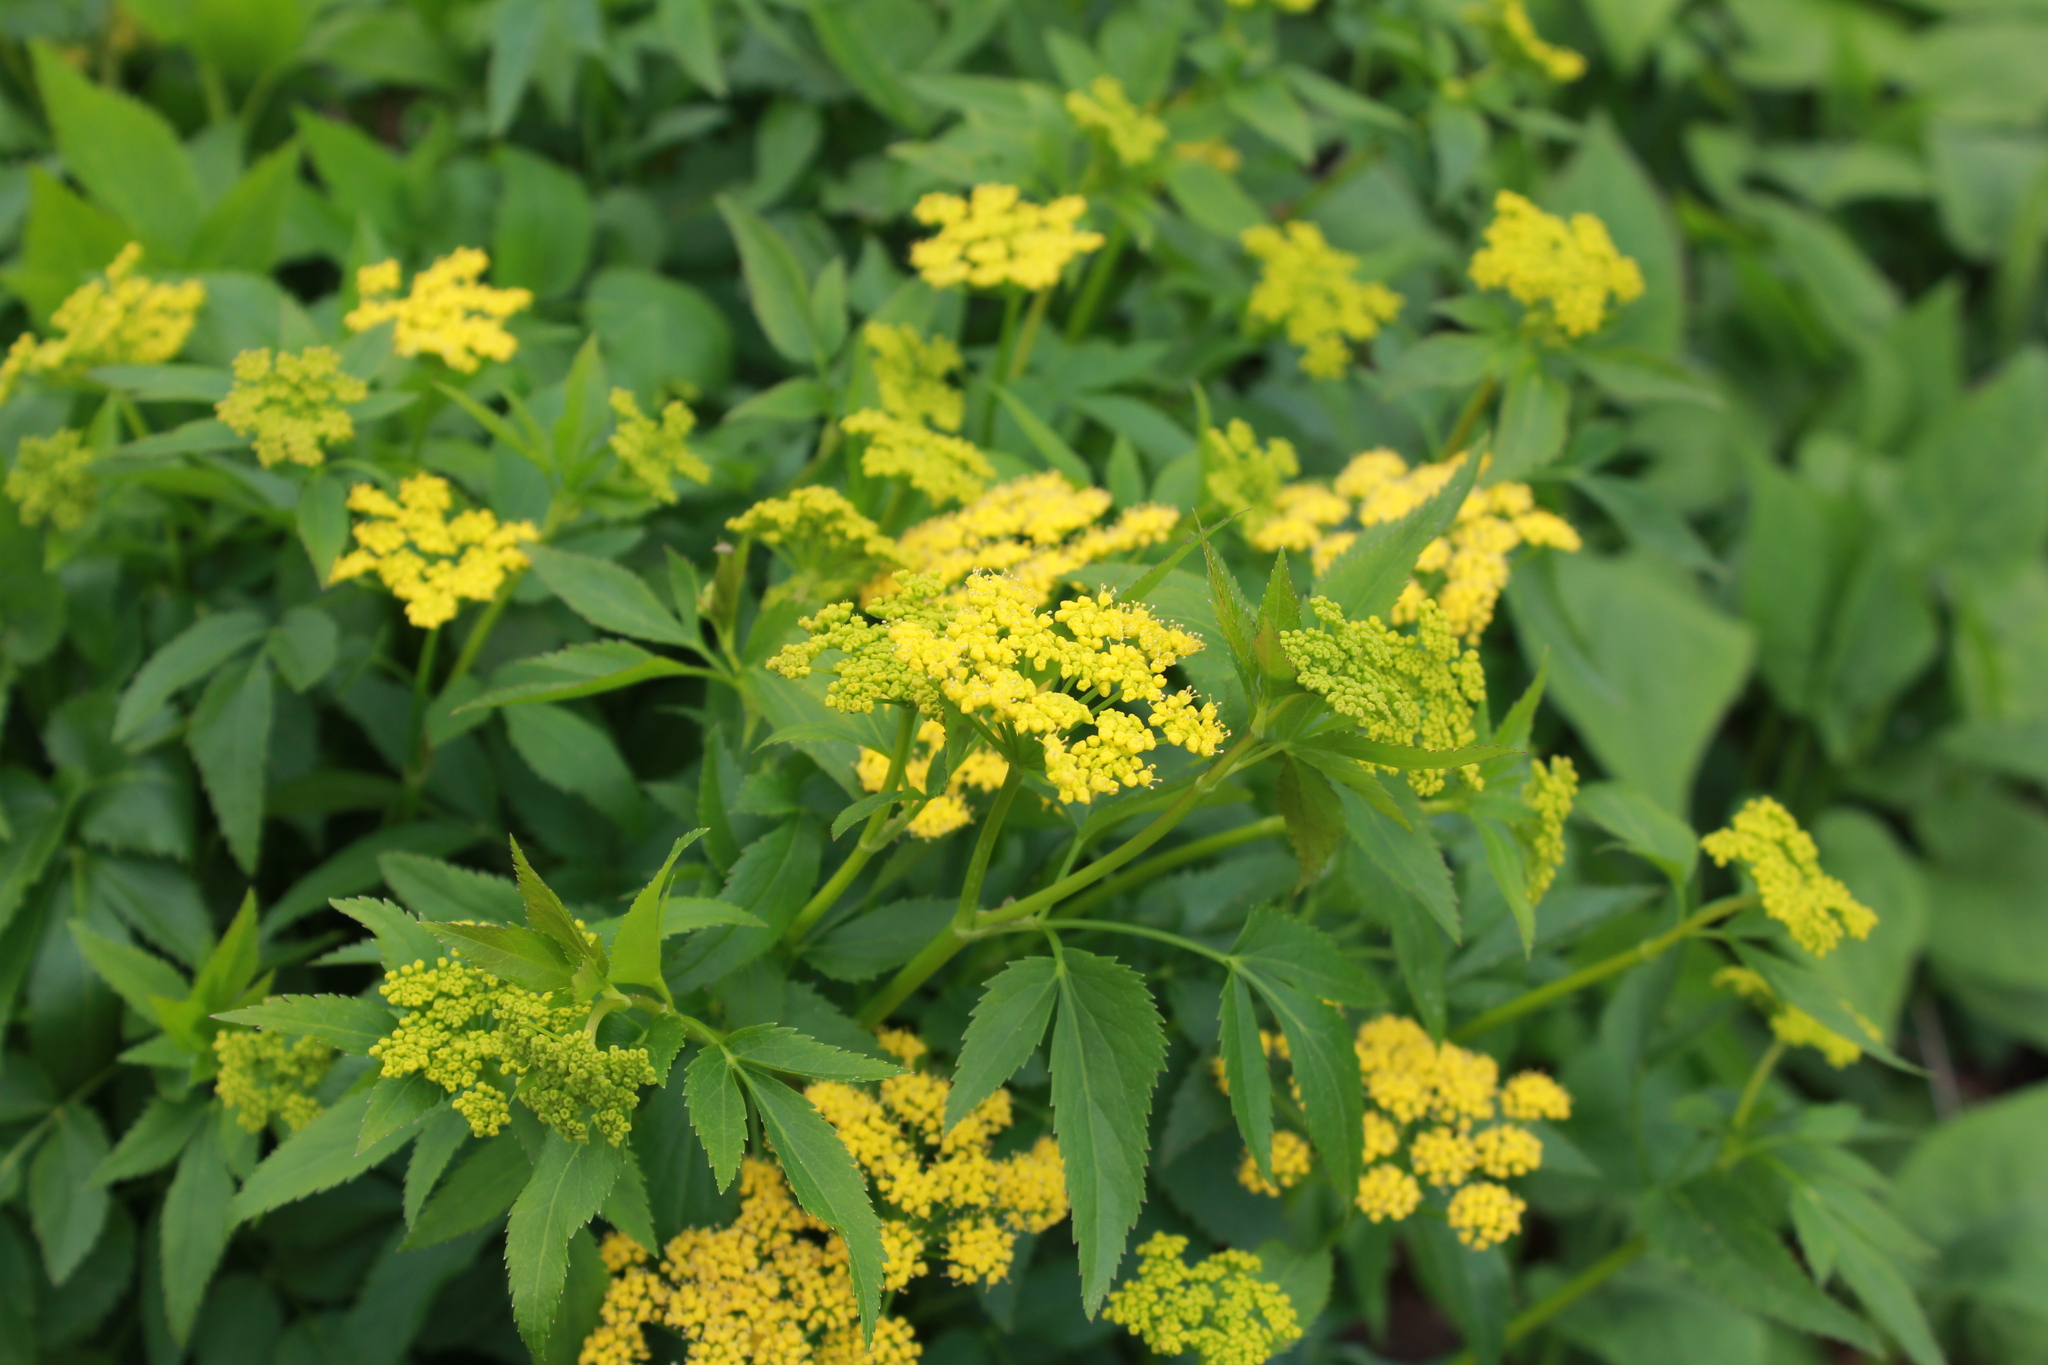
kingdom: Plantae
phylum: Tracheophyta
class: Magnoliopsida
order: Apiales
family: Apiaceae
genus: Zizia
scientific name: Zizia aurea
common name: Golden alexanders
